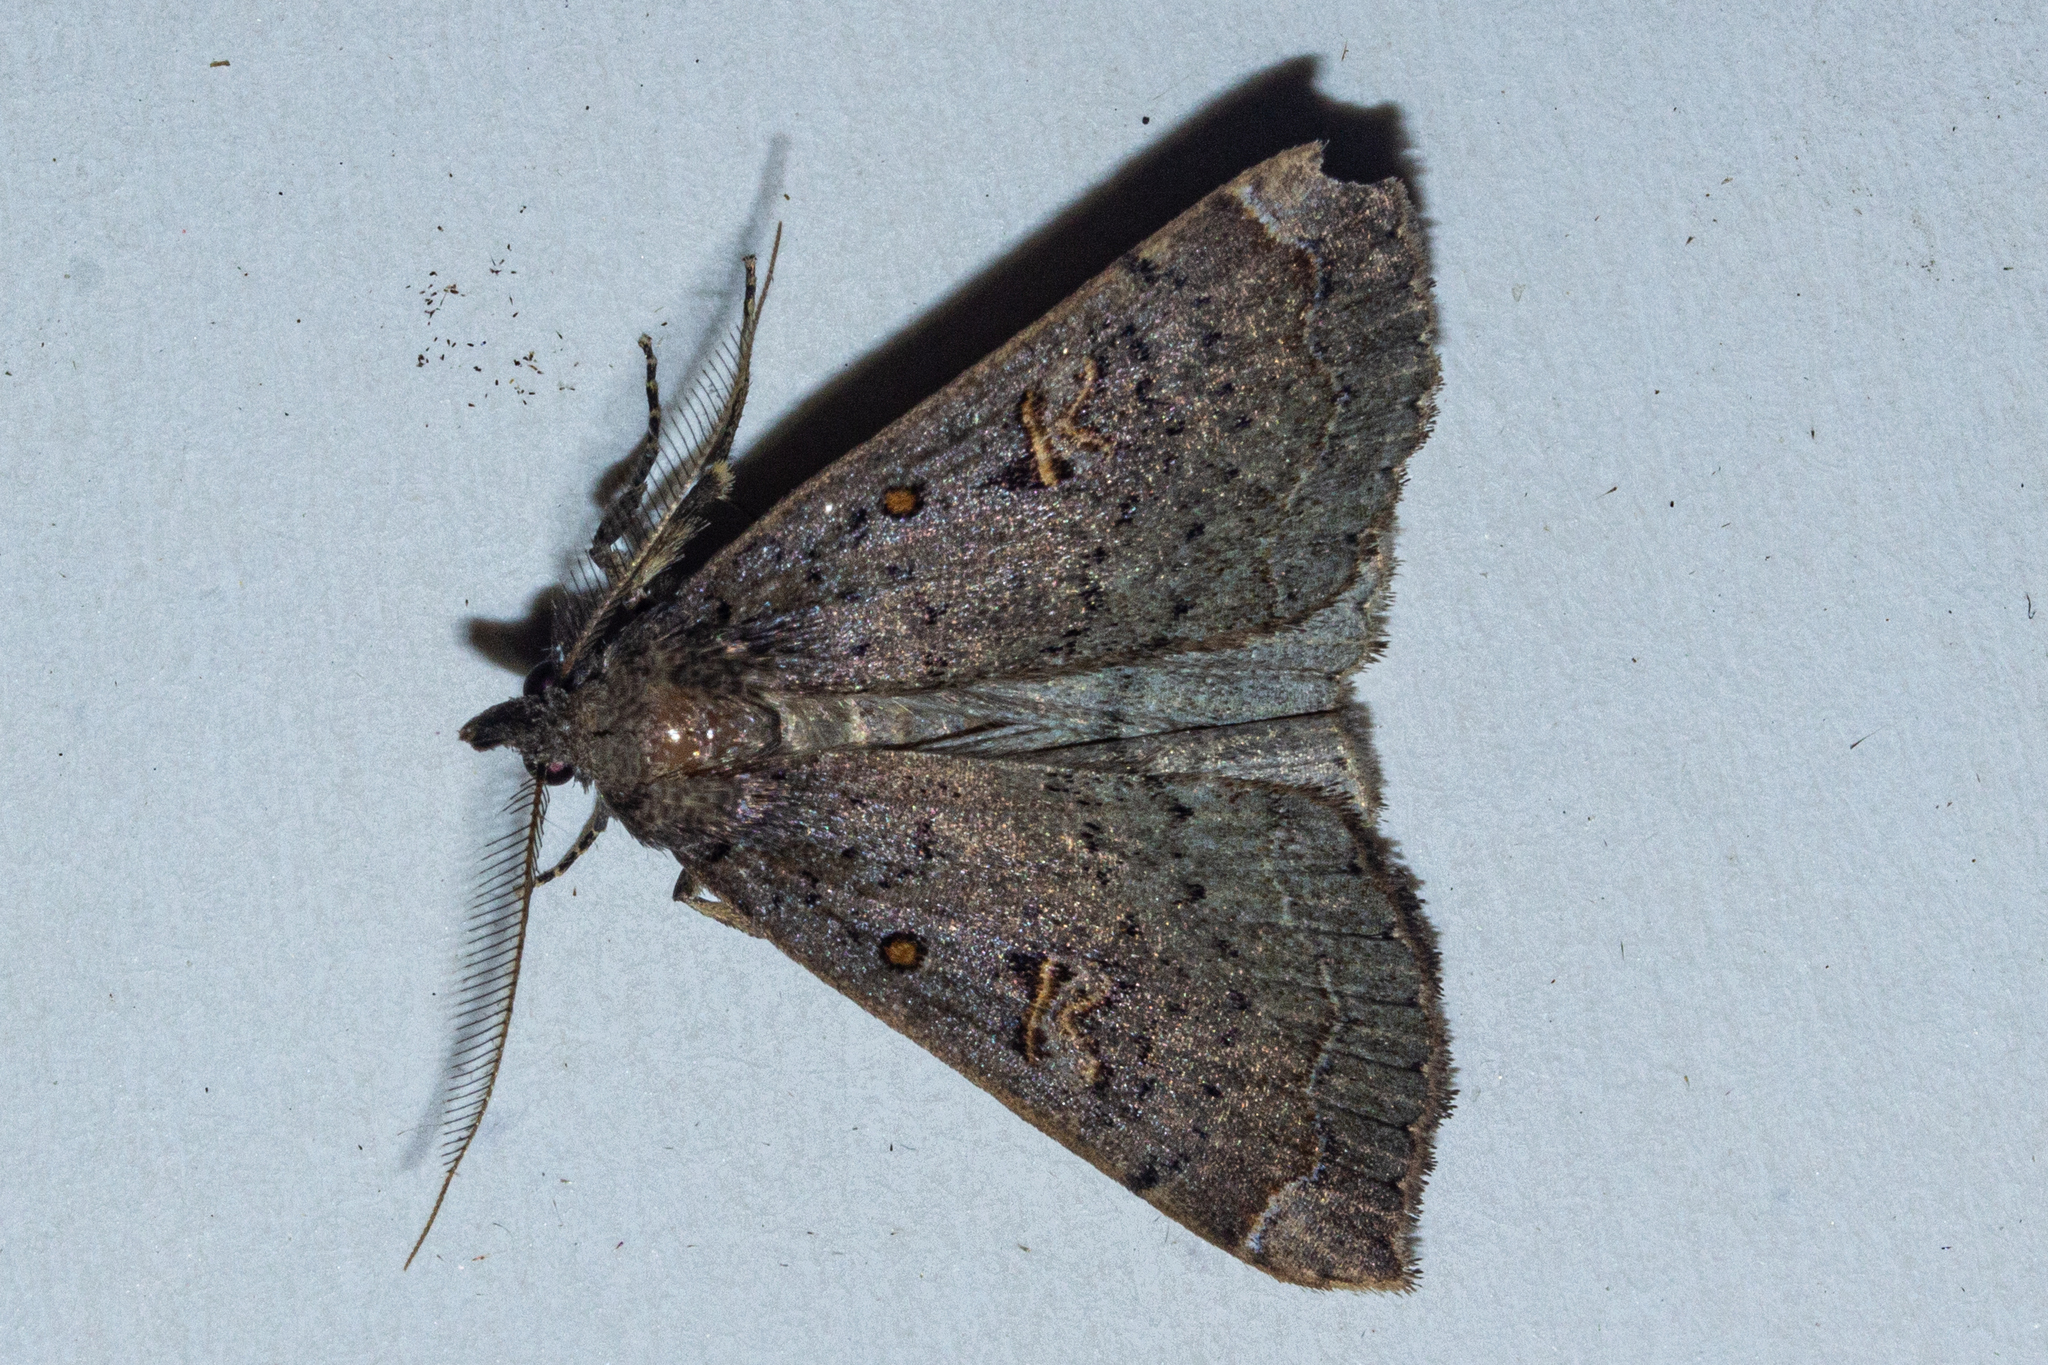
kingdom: Animalia
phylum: Arthropoda
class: Insecta
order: Lepidoptera
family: Erebidae
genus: Rhapsa
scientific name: Rhapsa scotosialis
